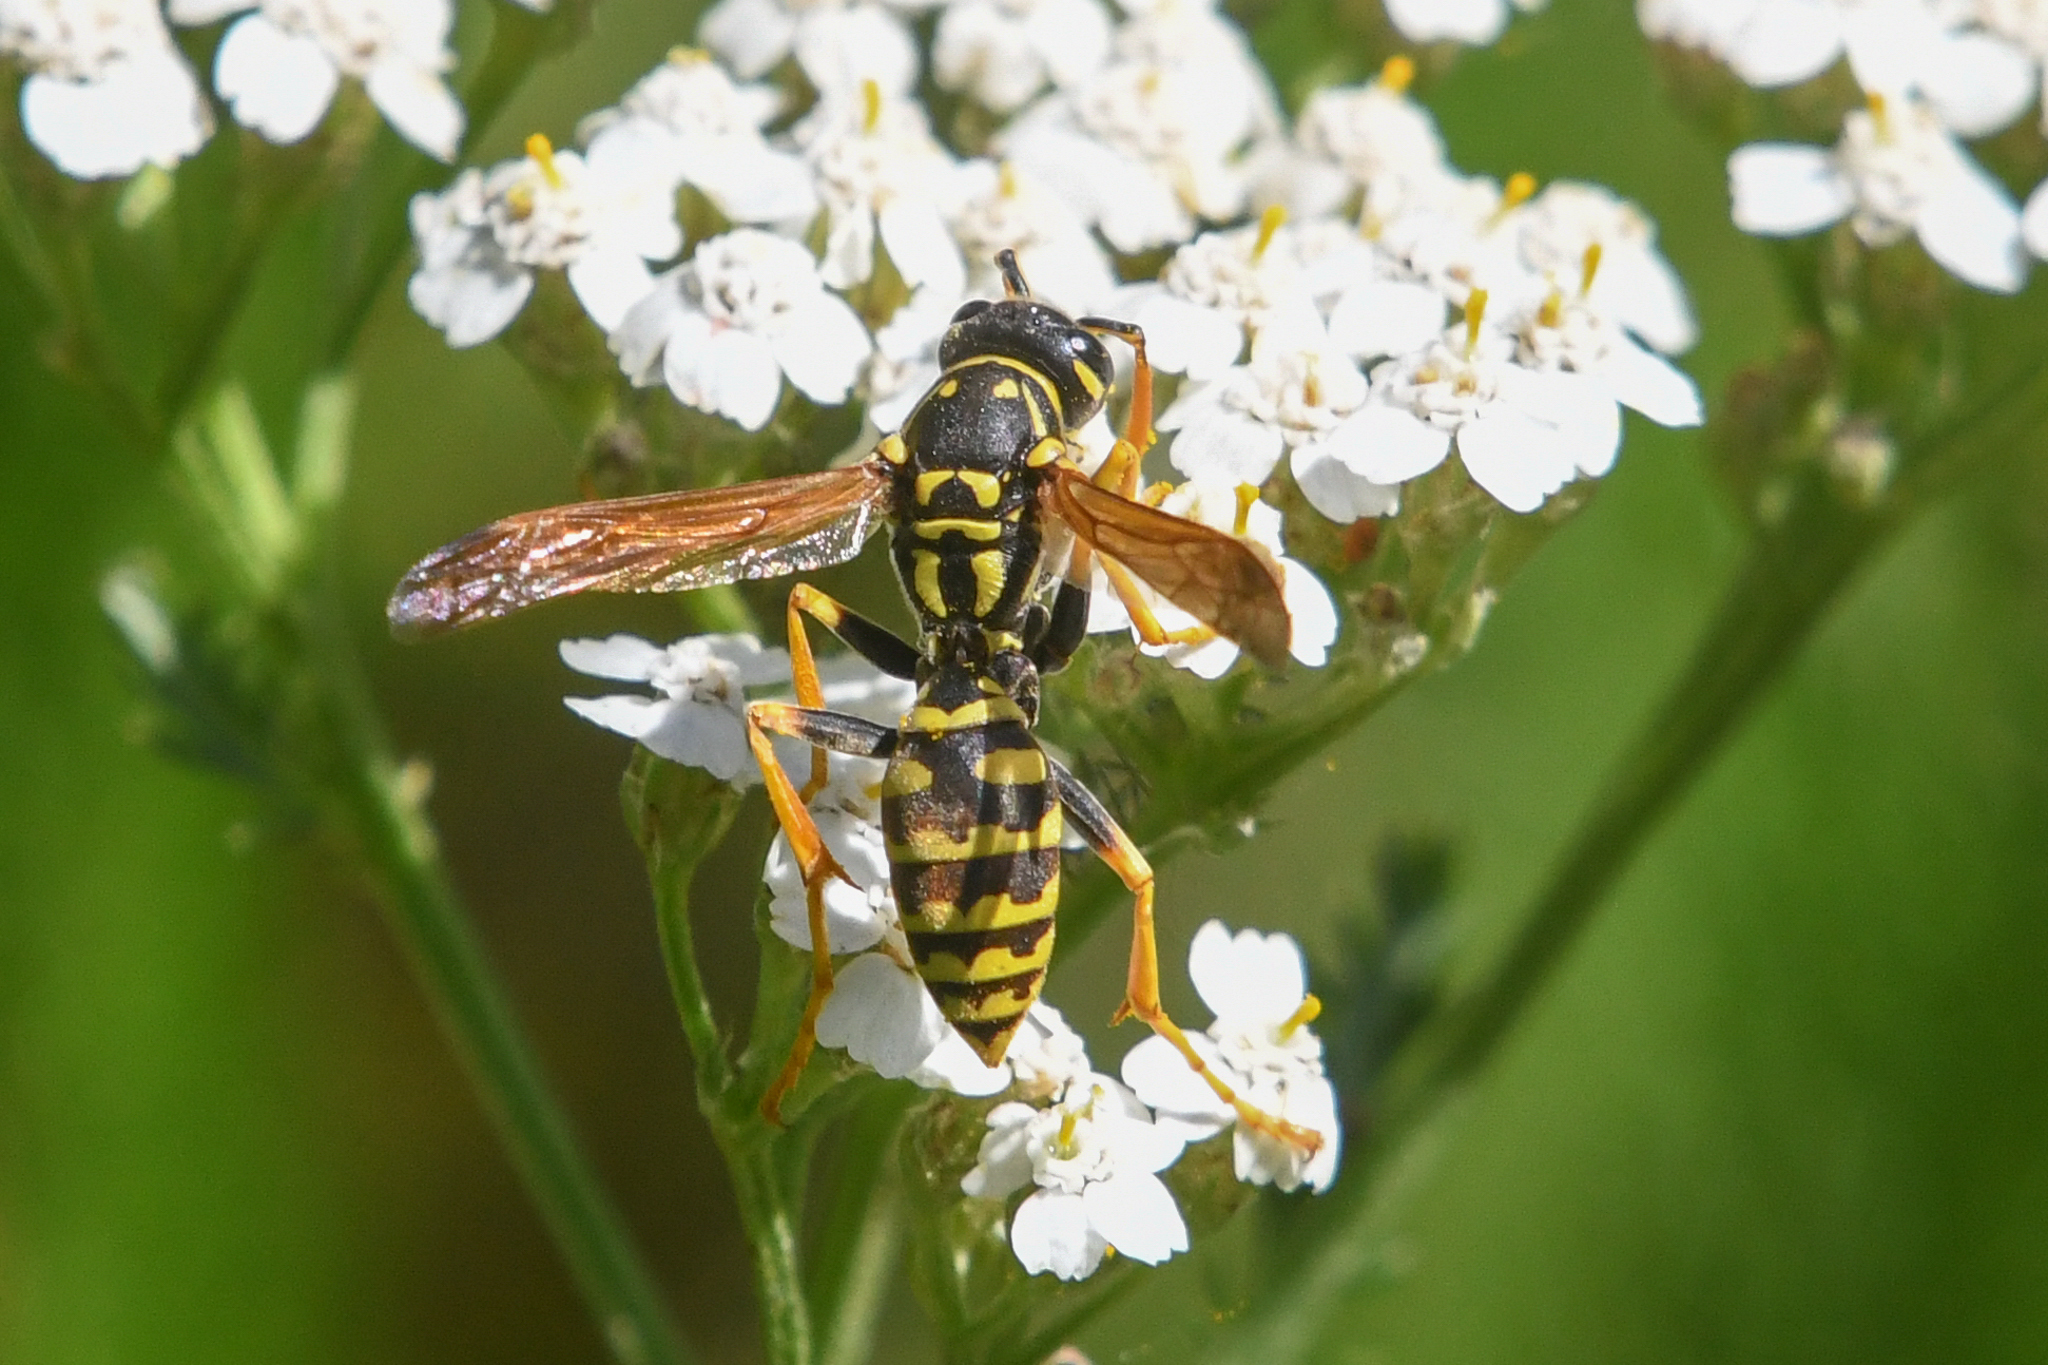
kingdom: Animalia
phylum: Arthropoda
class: Insecta
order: Hymenoptera
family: Eumenidae
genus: Polistes
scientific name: Polistes dominula
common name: Paper wasp
